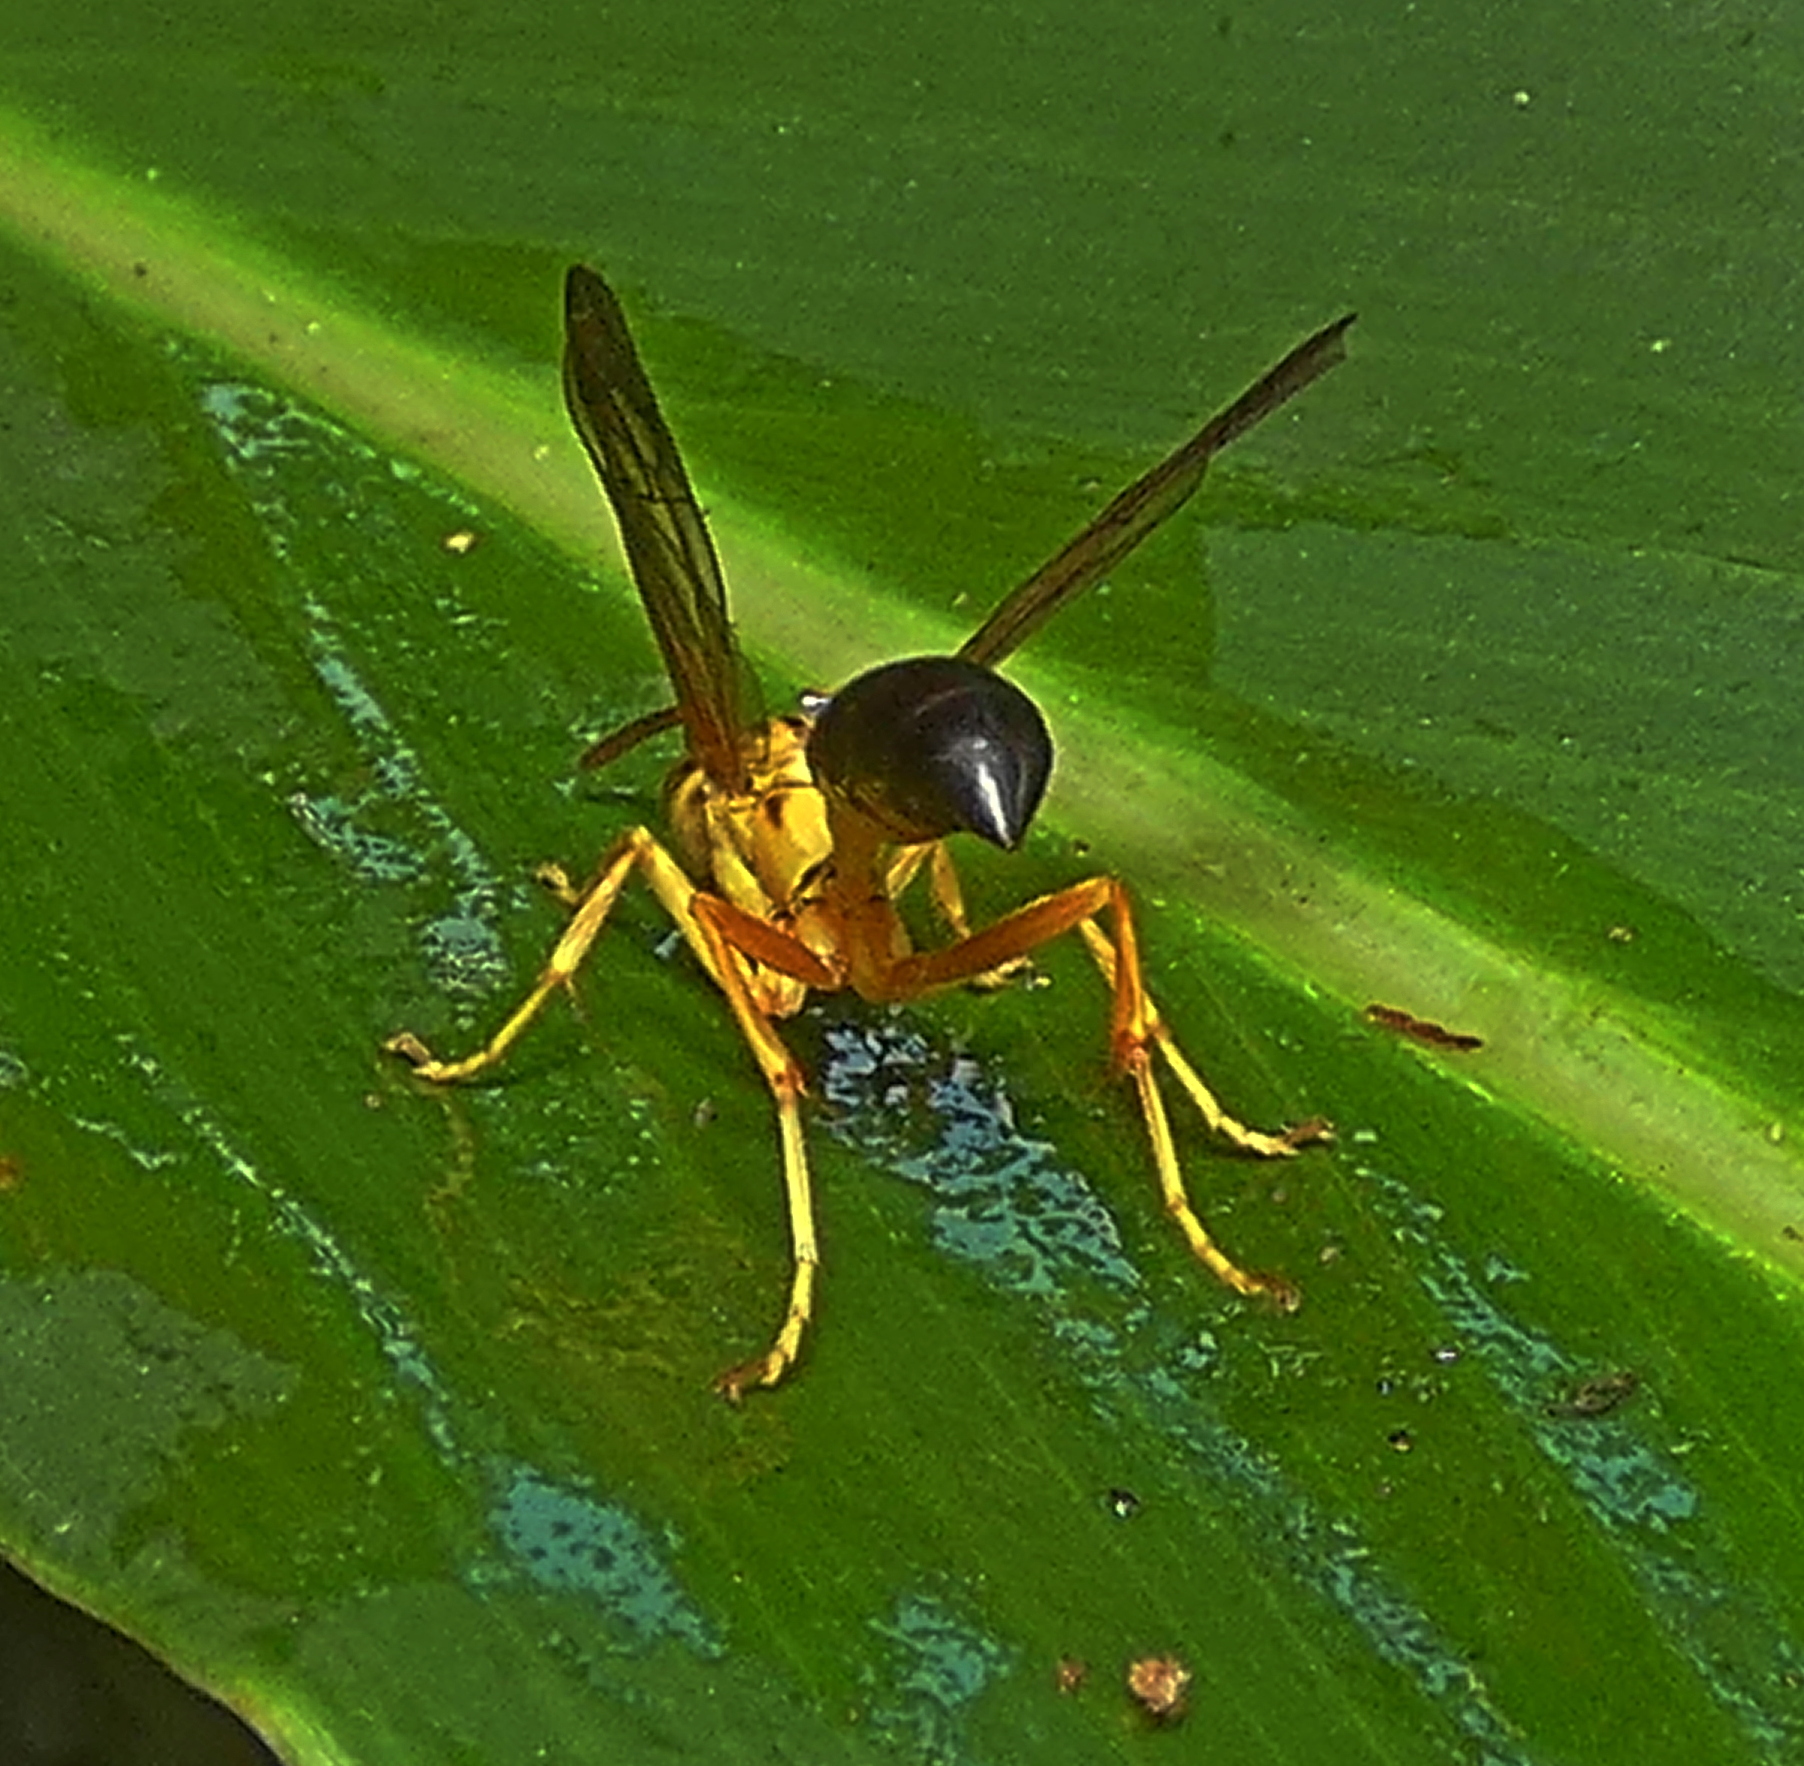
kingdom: Animalia
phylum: Arthropoda
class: Insecta
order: Hymenoptera
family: Vespidae
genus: Agelaia
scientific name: Agelaia pallipes
